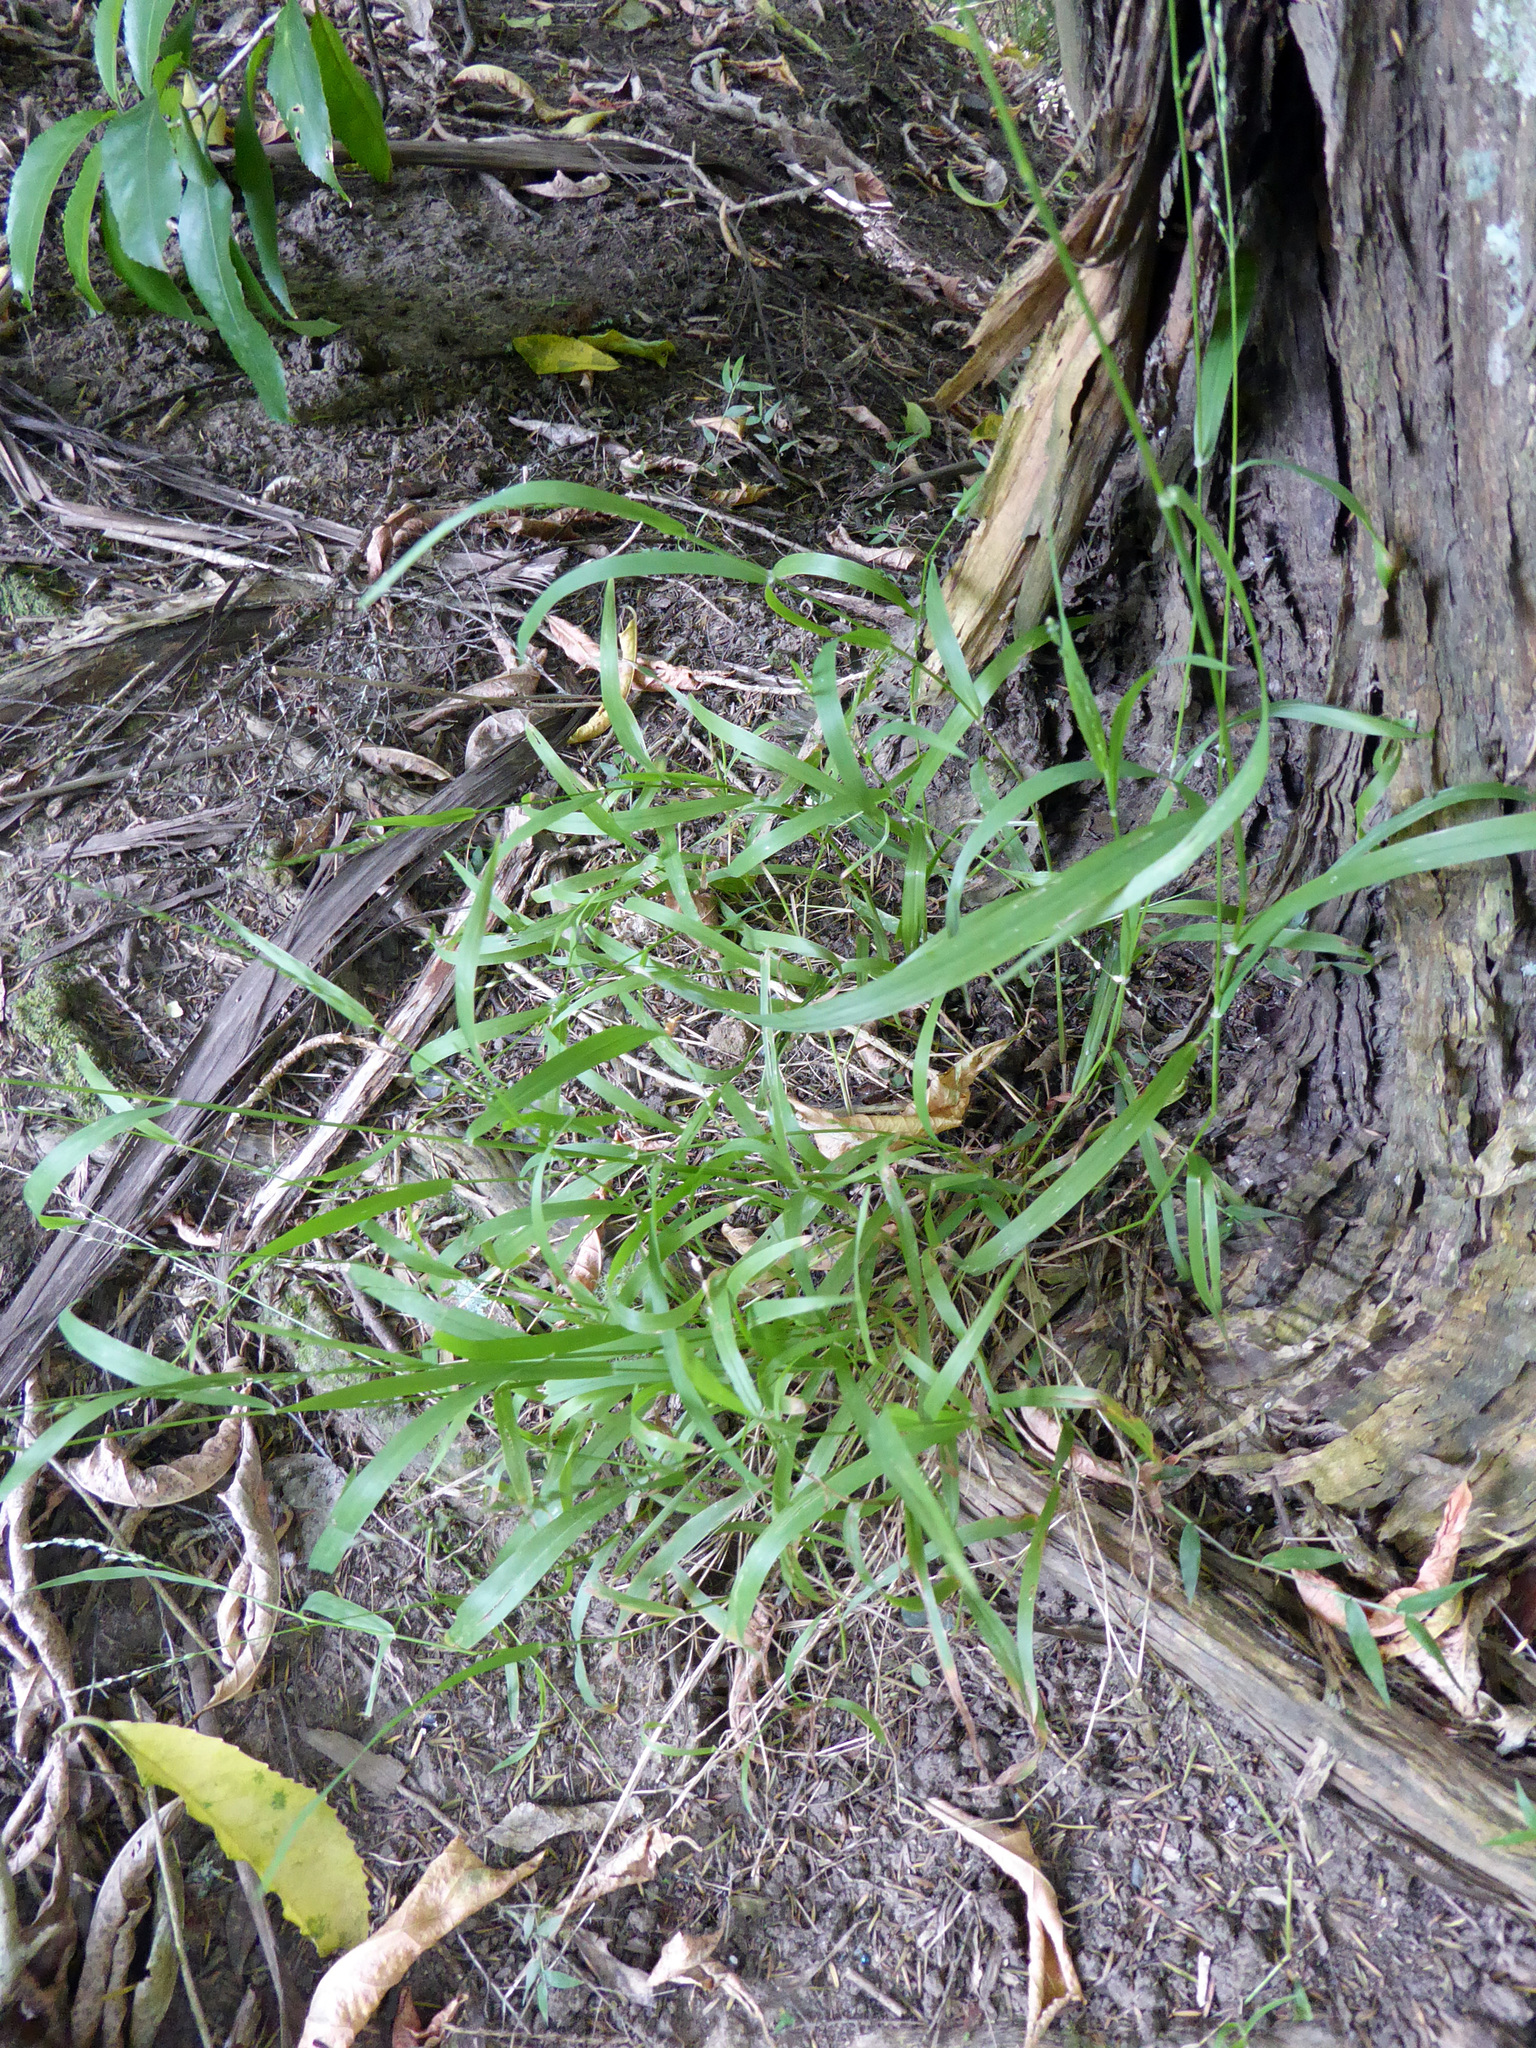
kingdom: Plantae
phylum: Tracheophyta
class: Liliopsida
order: Poales
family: Poaceae
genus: Ehrharta
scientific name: Ehrharta erecta
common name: Panic veldtgrass
